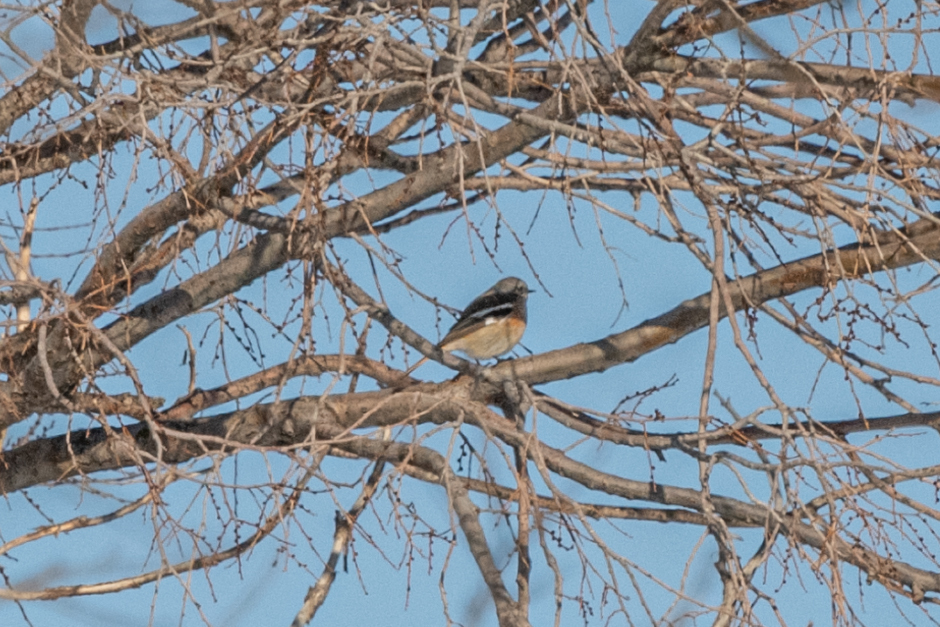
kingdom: Animalia
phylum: Chordata
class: Aves
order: Passeriformes
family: Muscicapidae
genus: Phoenicurus
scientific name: Phoenicurus erythronotus
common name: Eversmann's redstart
